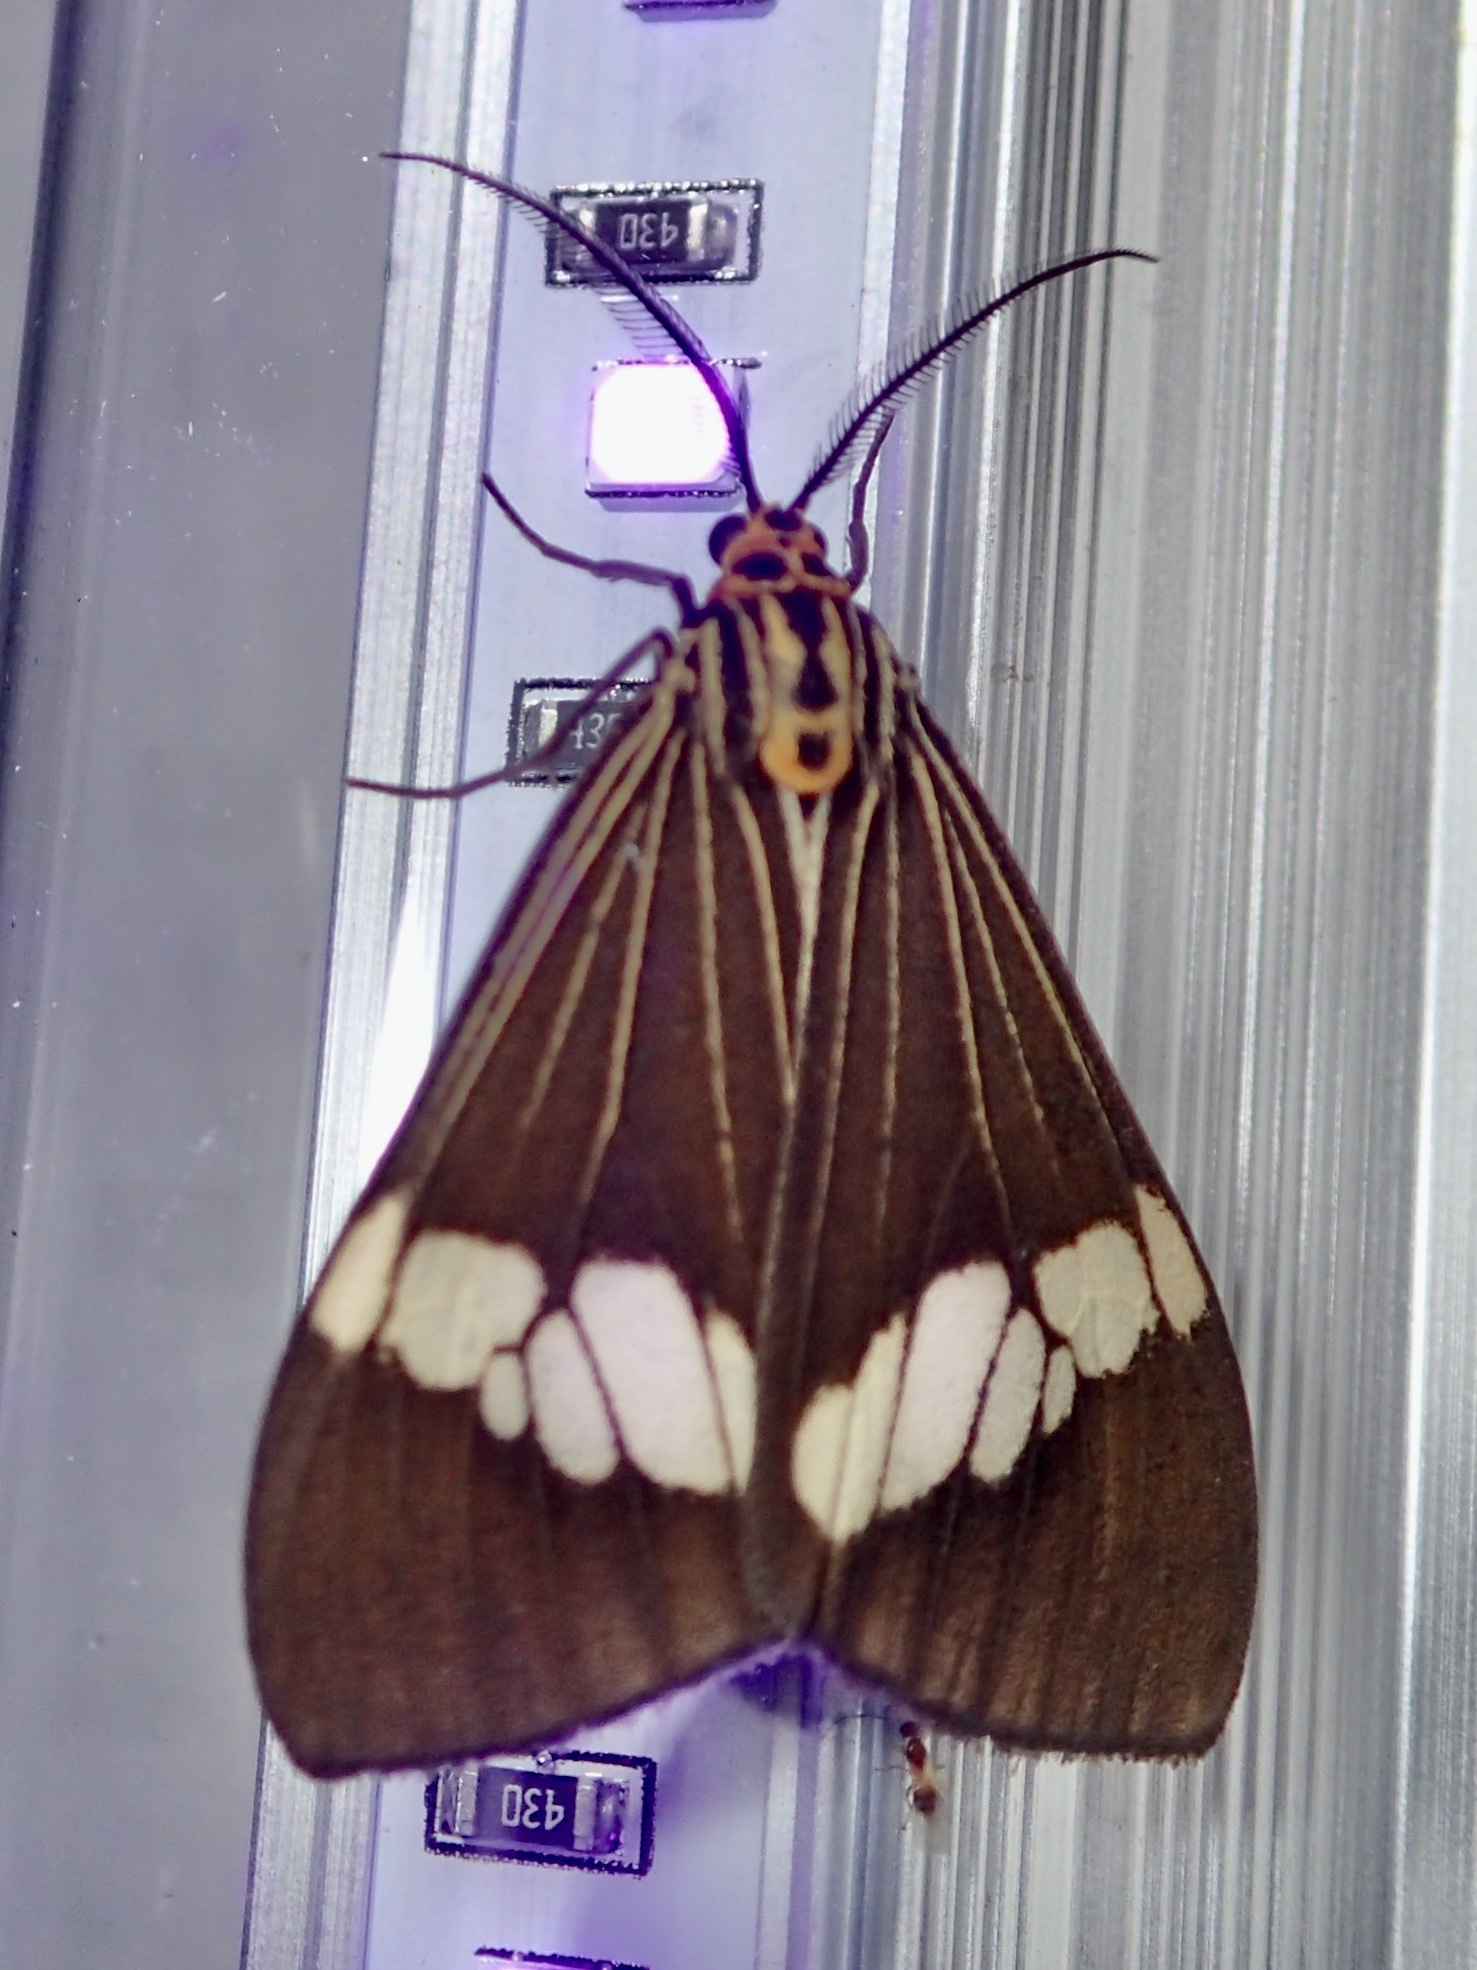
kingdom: Animalia
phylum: Arthropoda
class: Insecta
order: Lepidoptera
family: Erebidae
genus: Nyctemera
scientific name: Nyctemera baulus
